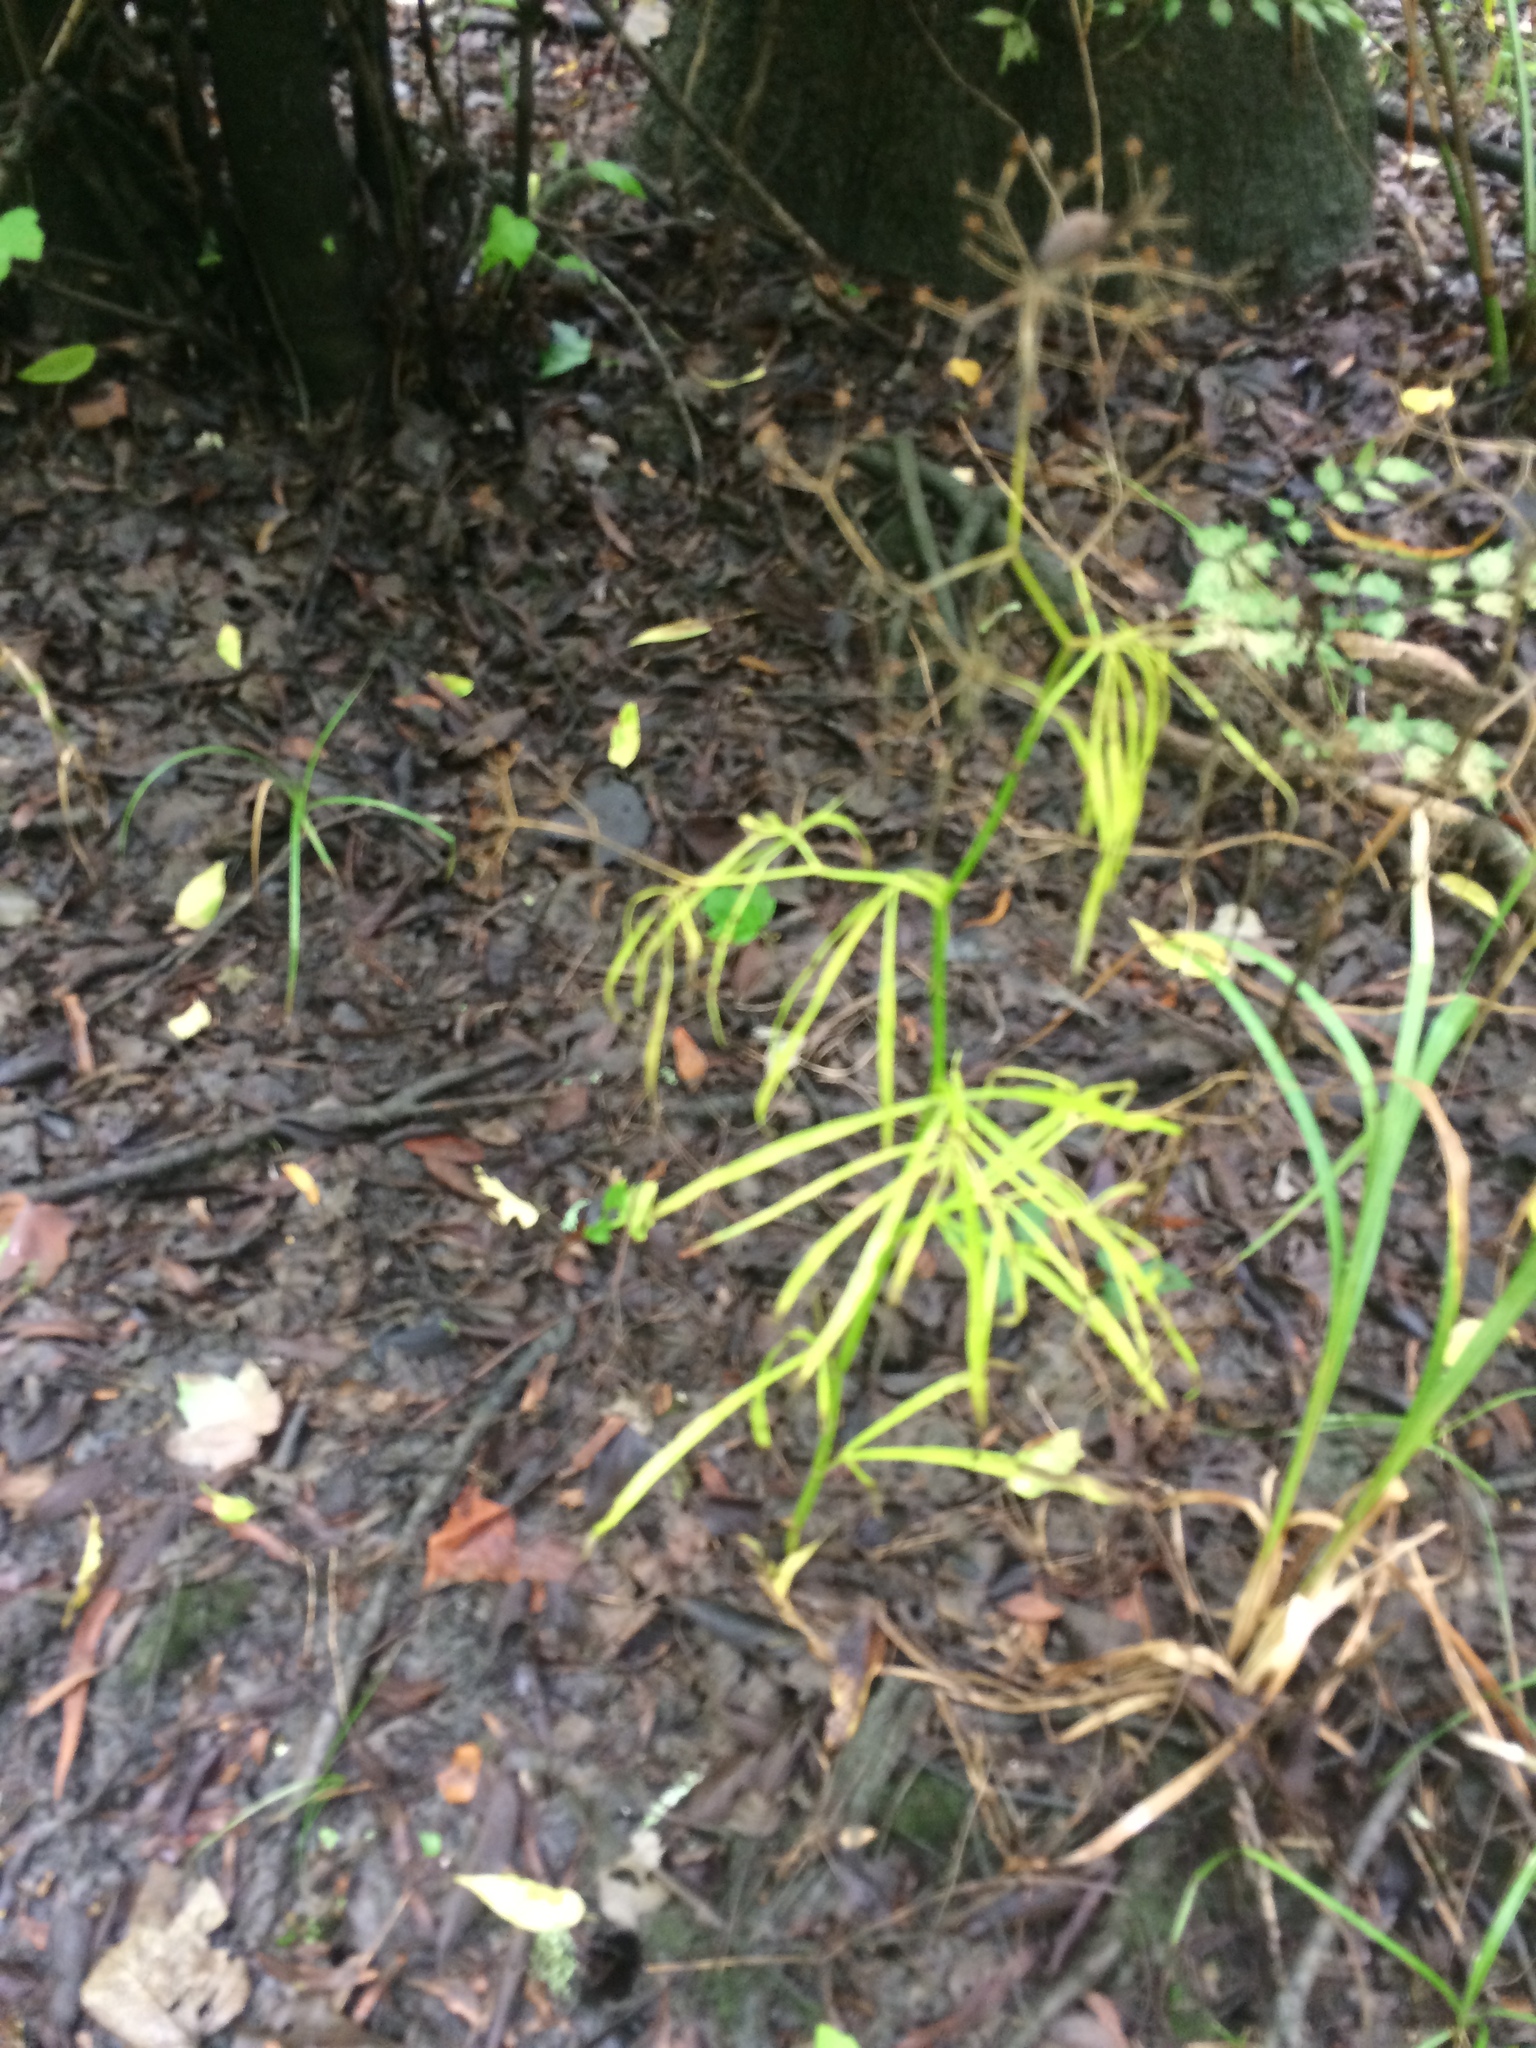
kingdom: Plantae
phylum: Tracheophyta
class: Magnoliopsida
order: Apiales
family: Apiaceae
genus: Cynosciadium
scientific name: Cynosciadium digitatum
